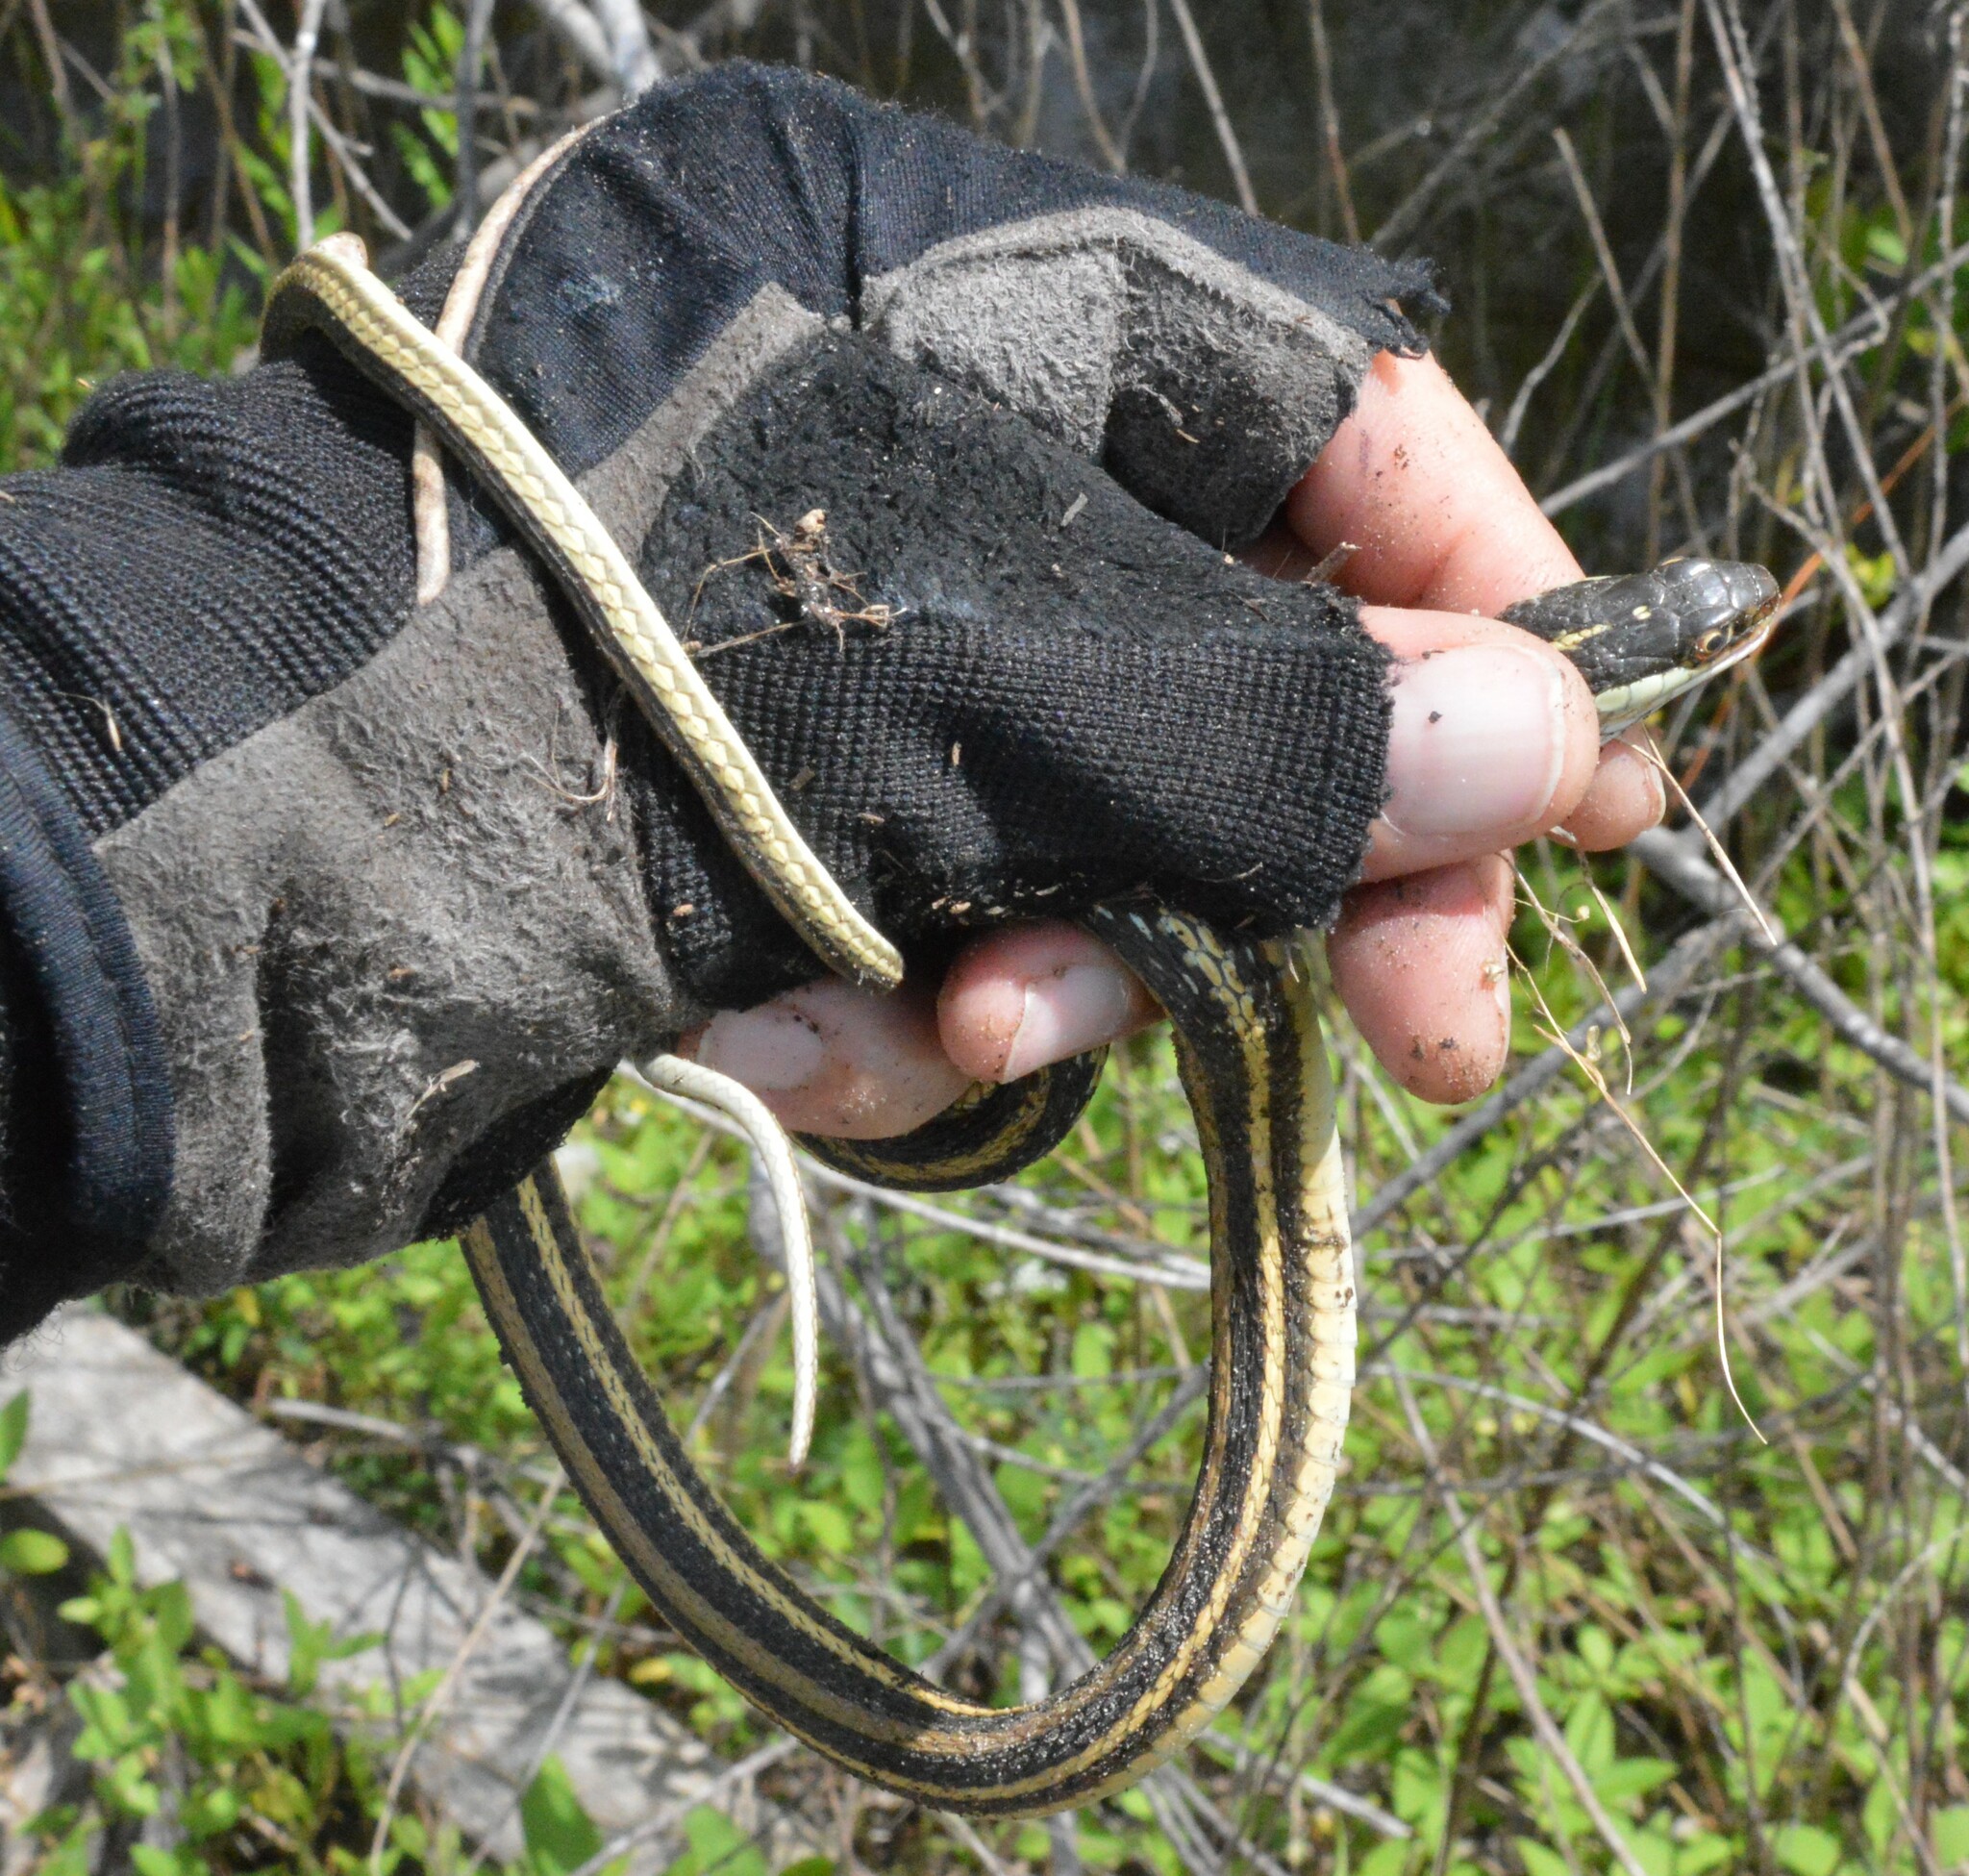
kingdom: Animalia
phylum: Chordata
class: Squamata
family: Colubridae
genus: Thamnophis
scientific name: Thamnophis proximus
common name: Western ribbon snake
